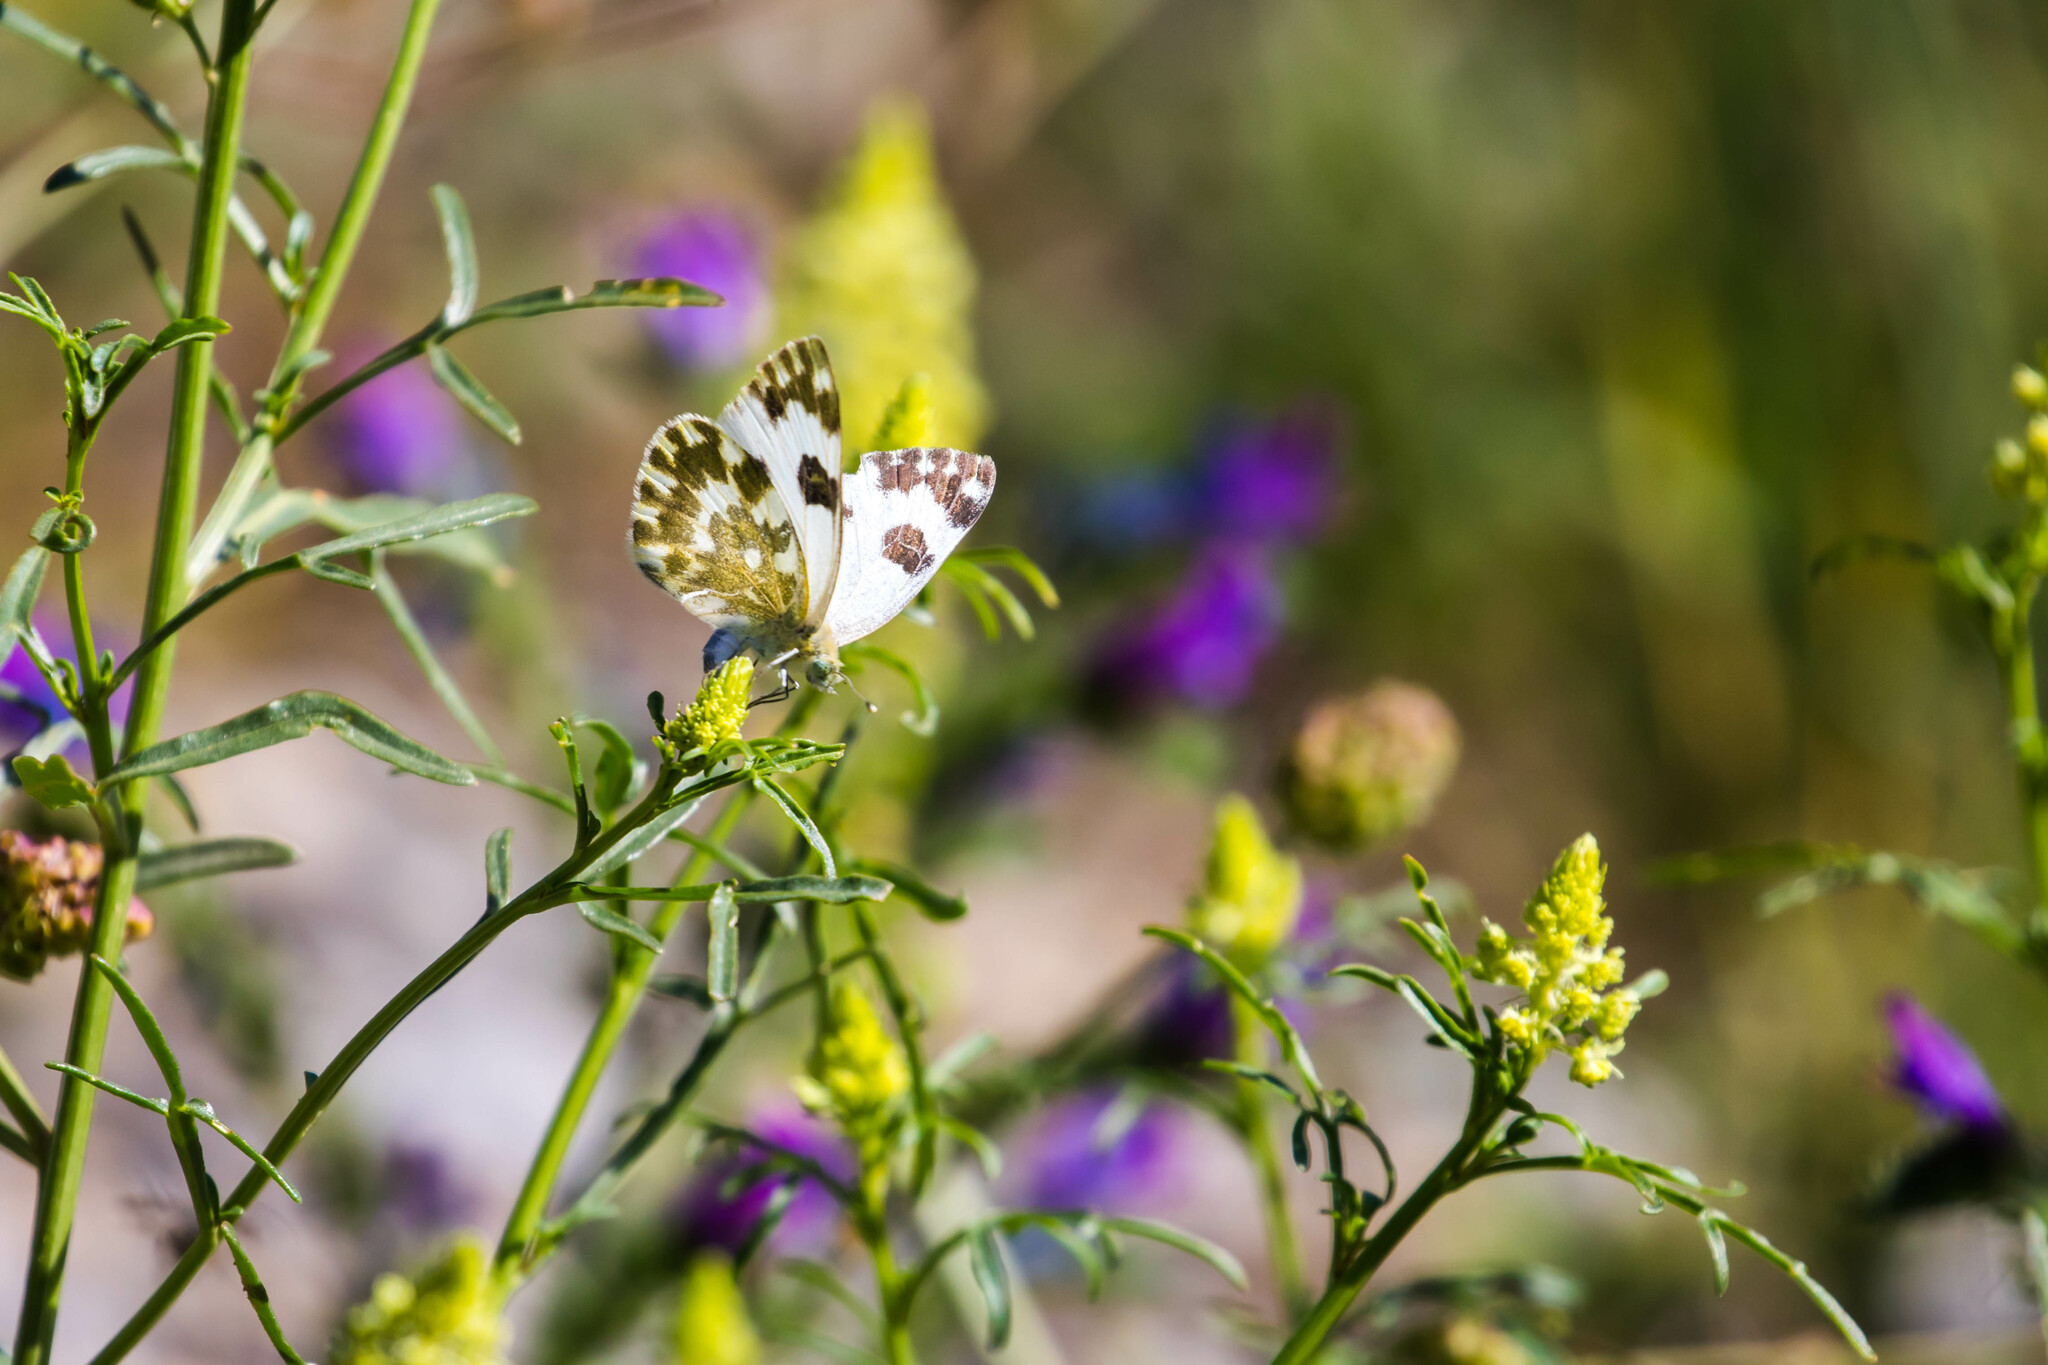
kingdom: Animalia
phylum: Arthropoda
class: Insecta
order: Lepidoptera
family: Pieridae
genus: Pontia
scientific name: Pontia daplidice
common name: Bath white
